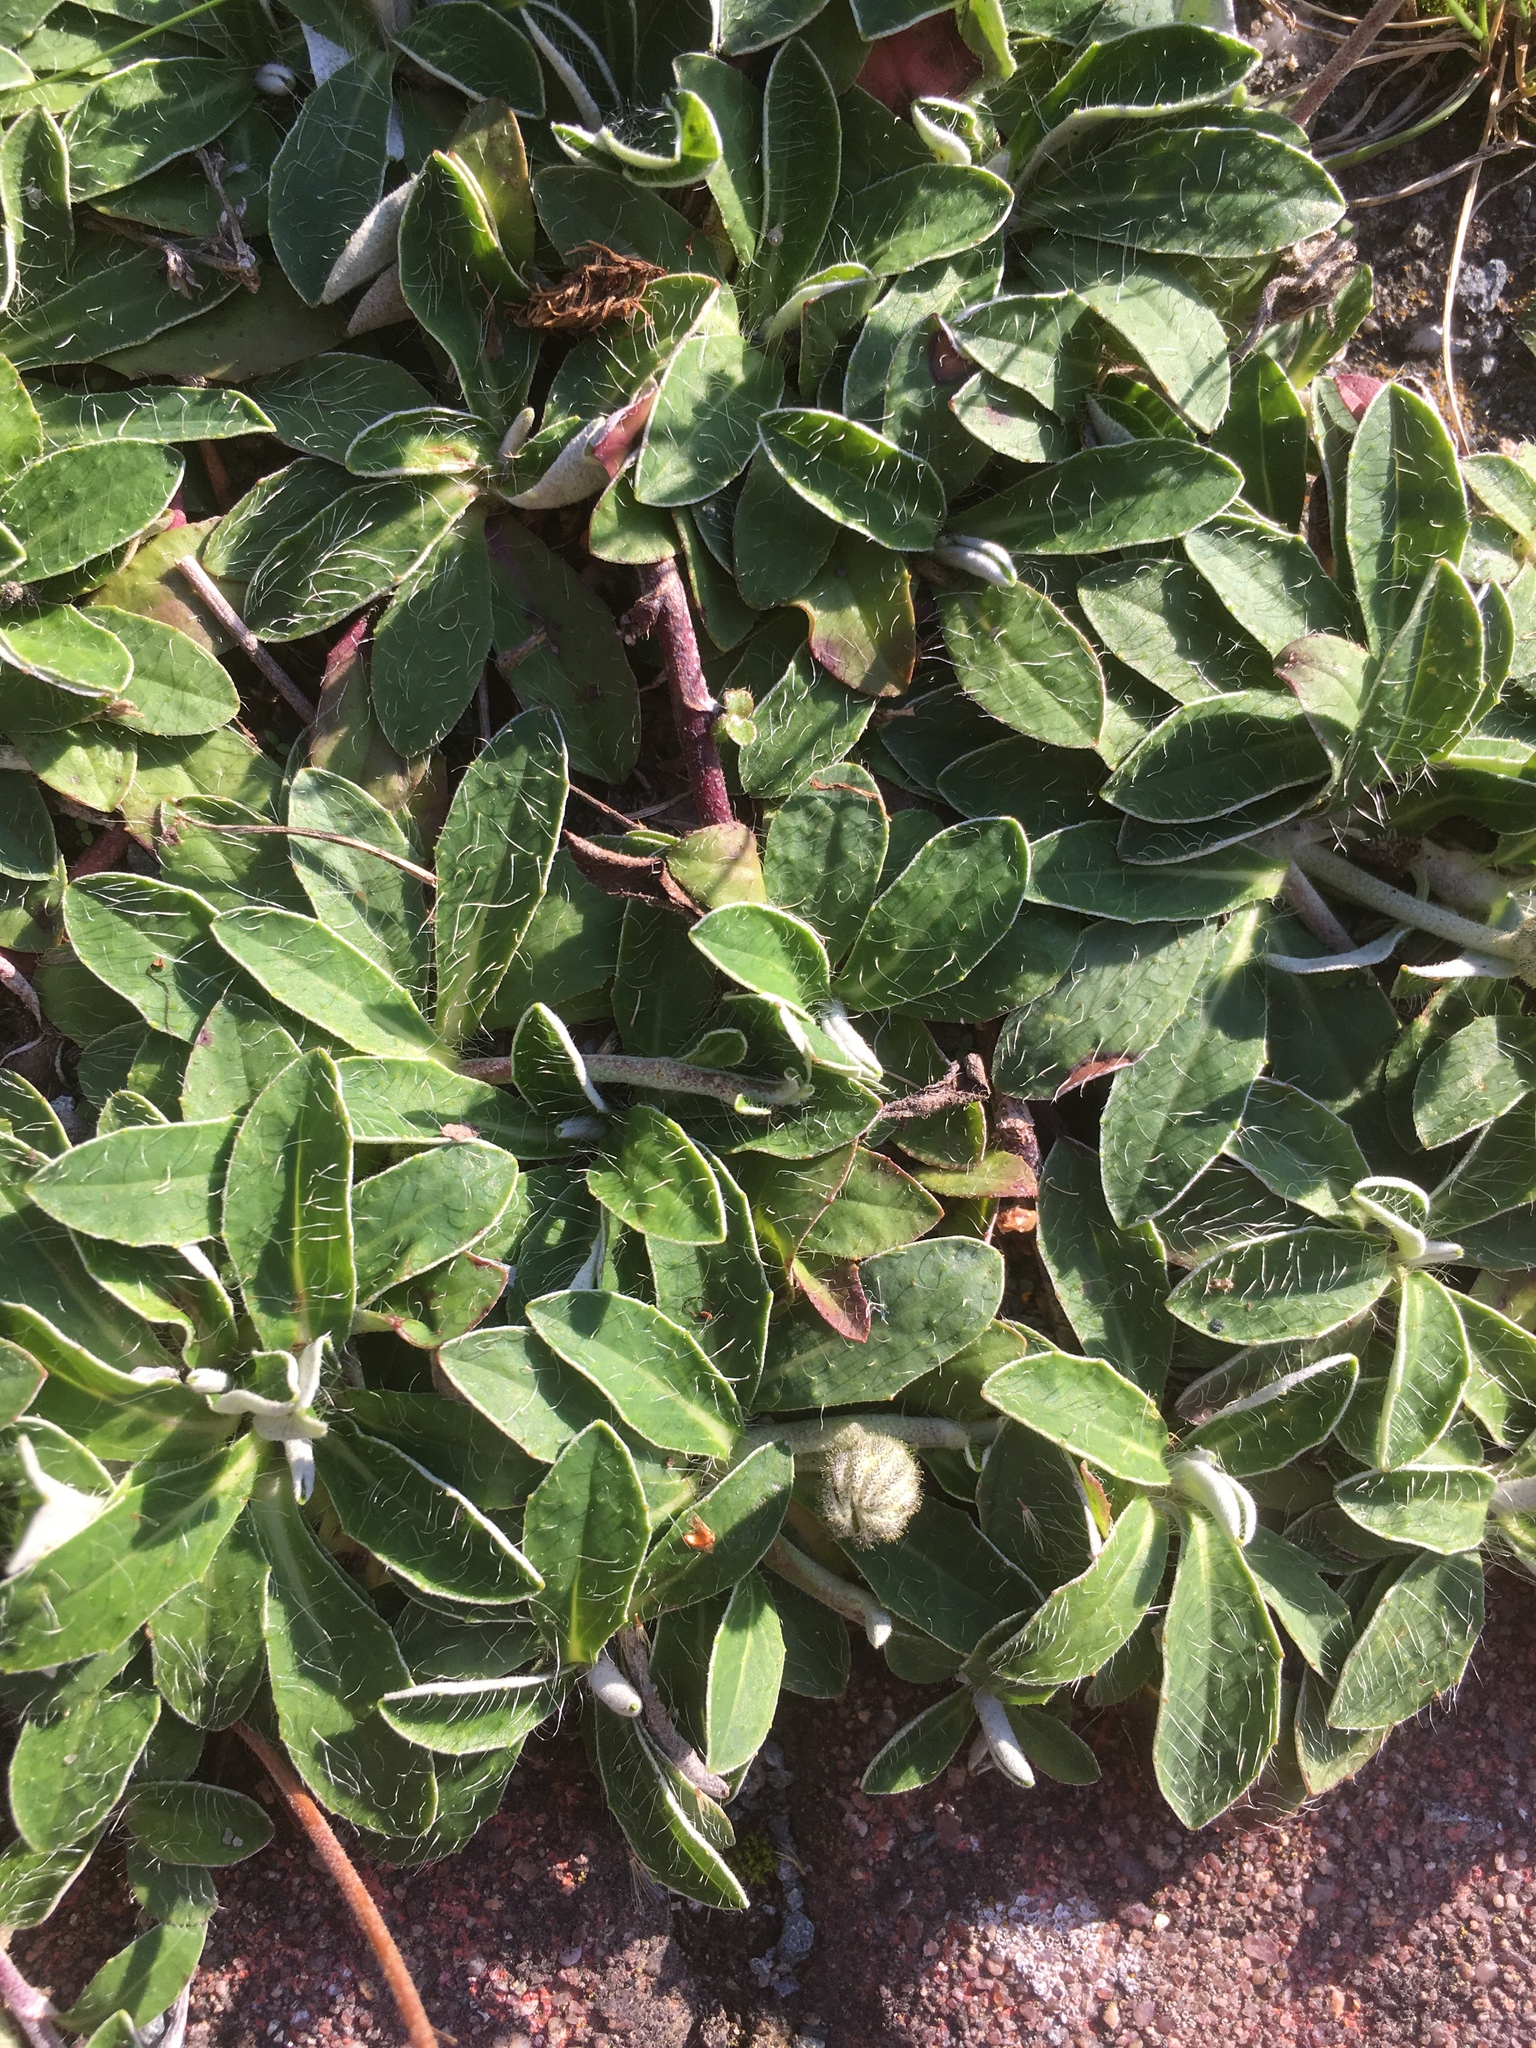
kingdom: Plantae
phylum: Tracheophyta
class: Magnoliopsida
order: Asterales
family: Asteraceae
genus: Pilosella
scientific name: Pilosella officinarum
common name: Mouse-ear hawkweed
